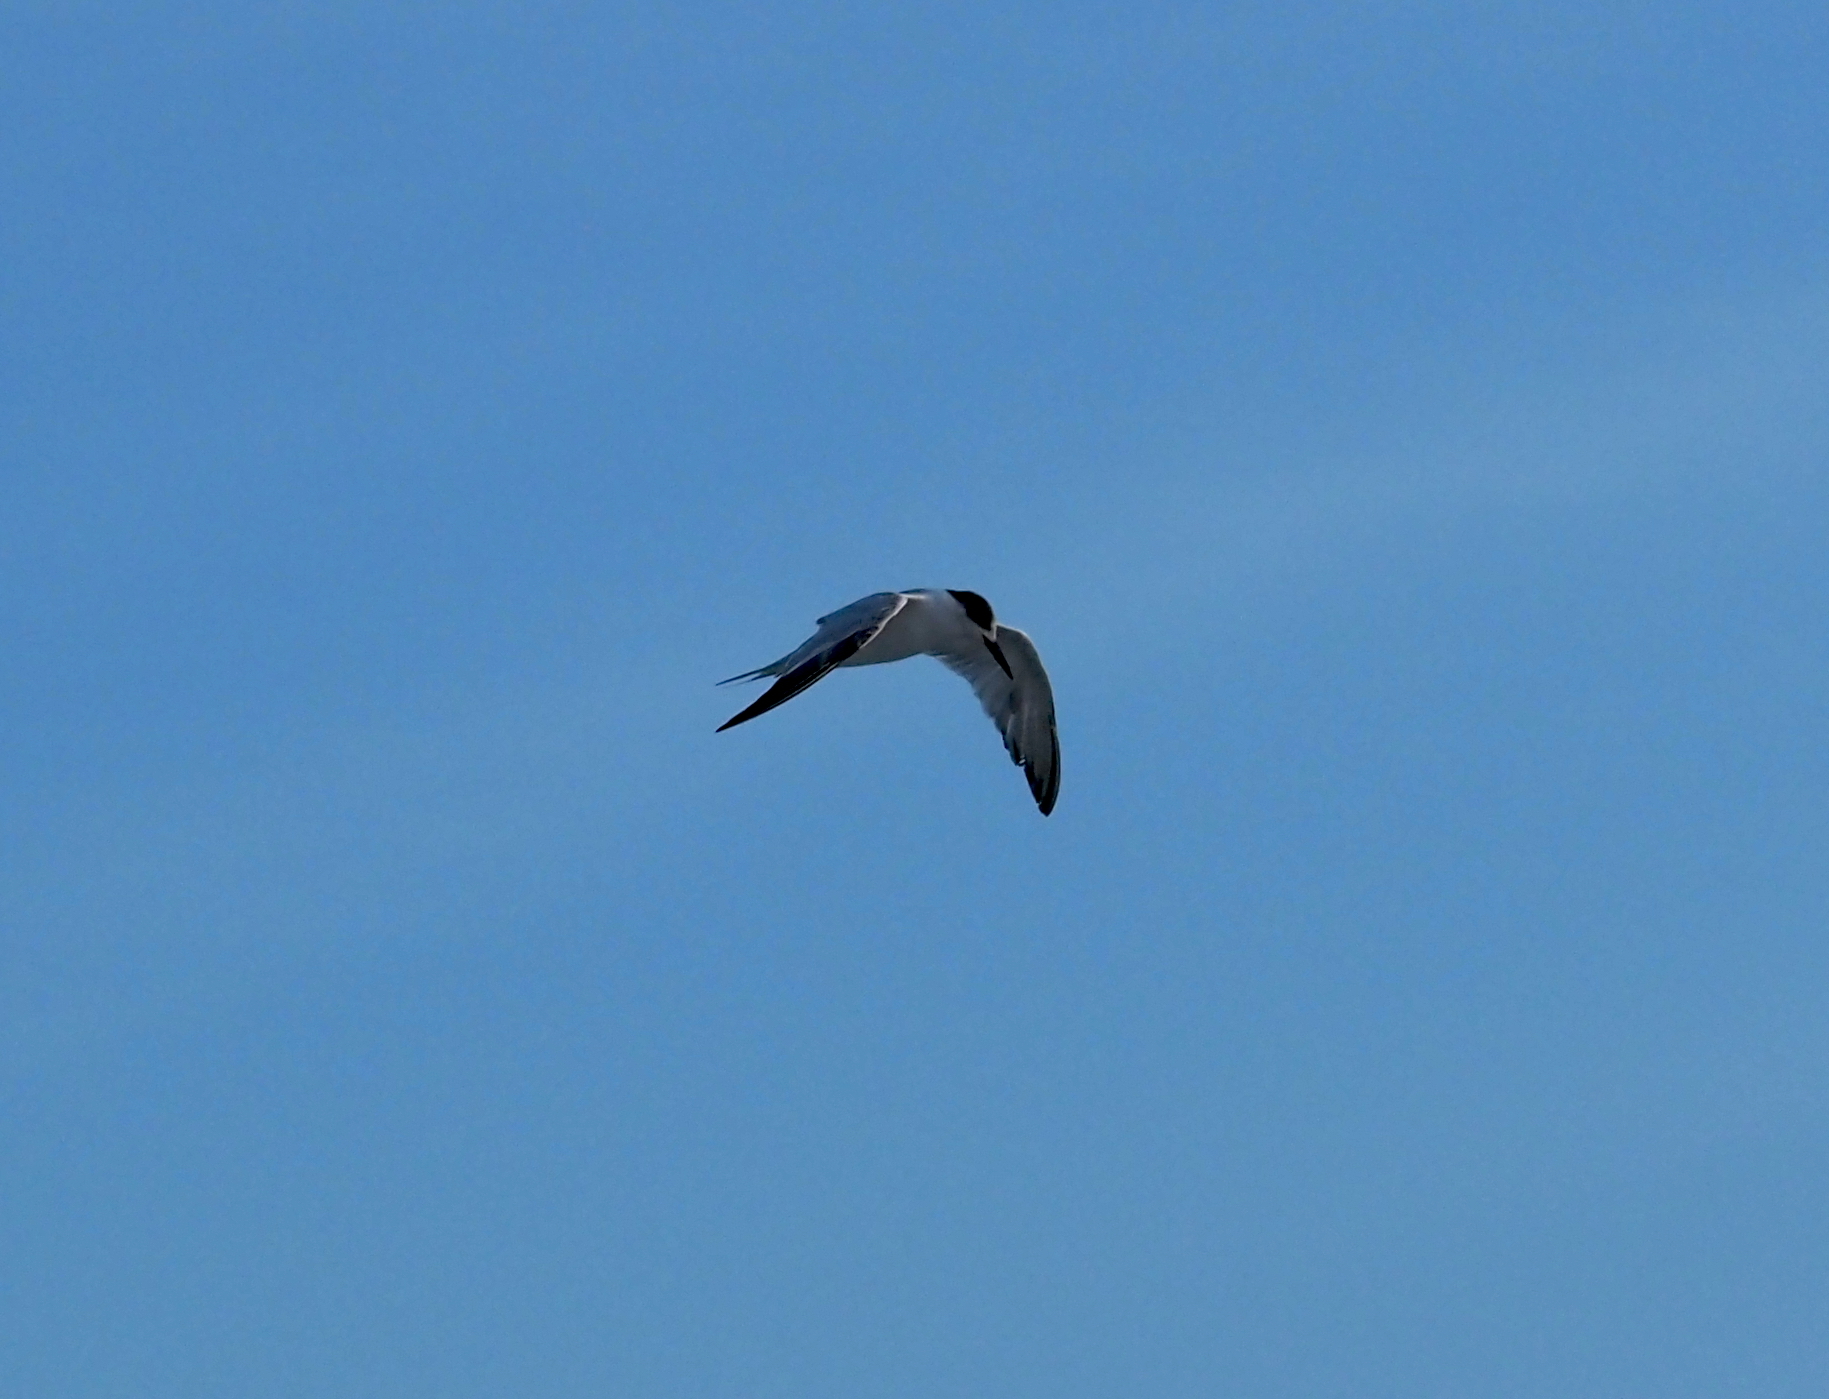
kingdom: Animalia
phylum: Chordata
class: Aves
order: Charadriiformes
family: Laridae
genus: Sterna
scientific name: Sterna hirundo
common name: Common tern
